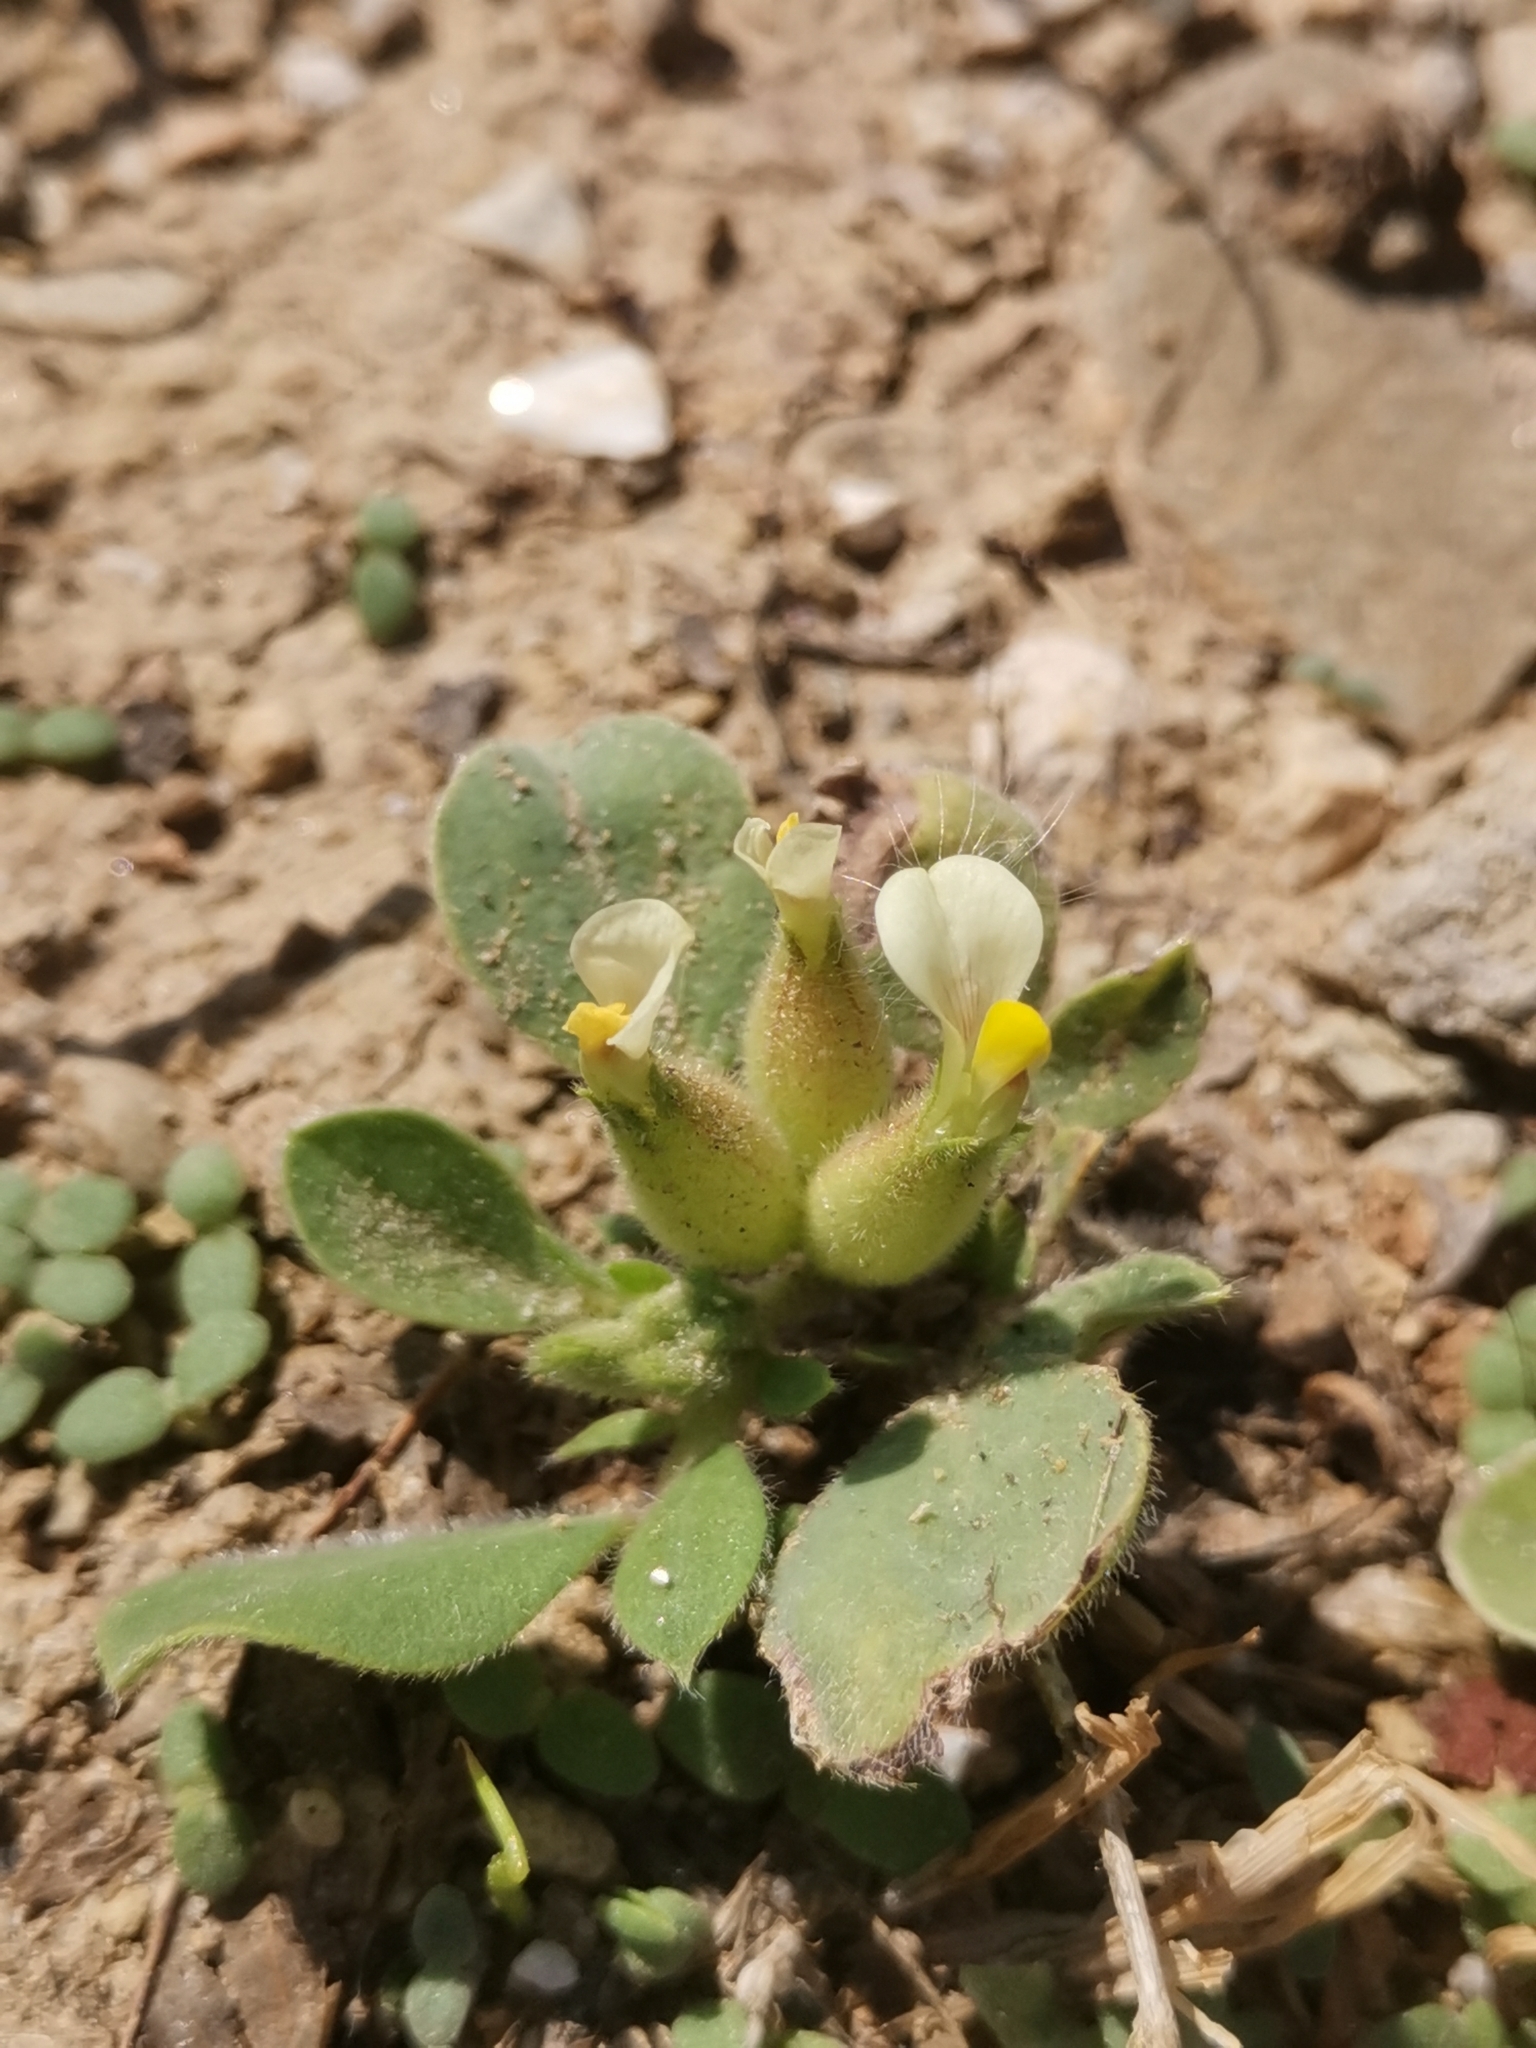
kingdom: Plantae
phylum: Tracheophyta
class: Magnoliopsida
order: Fabales
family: Fabaceae
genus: Tripodion
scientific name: Tripodion tetraphyllum
